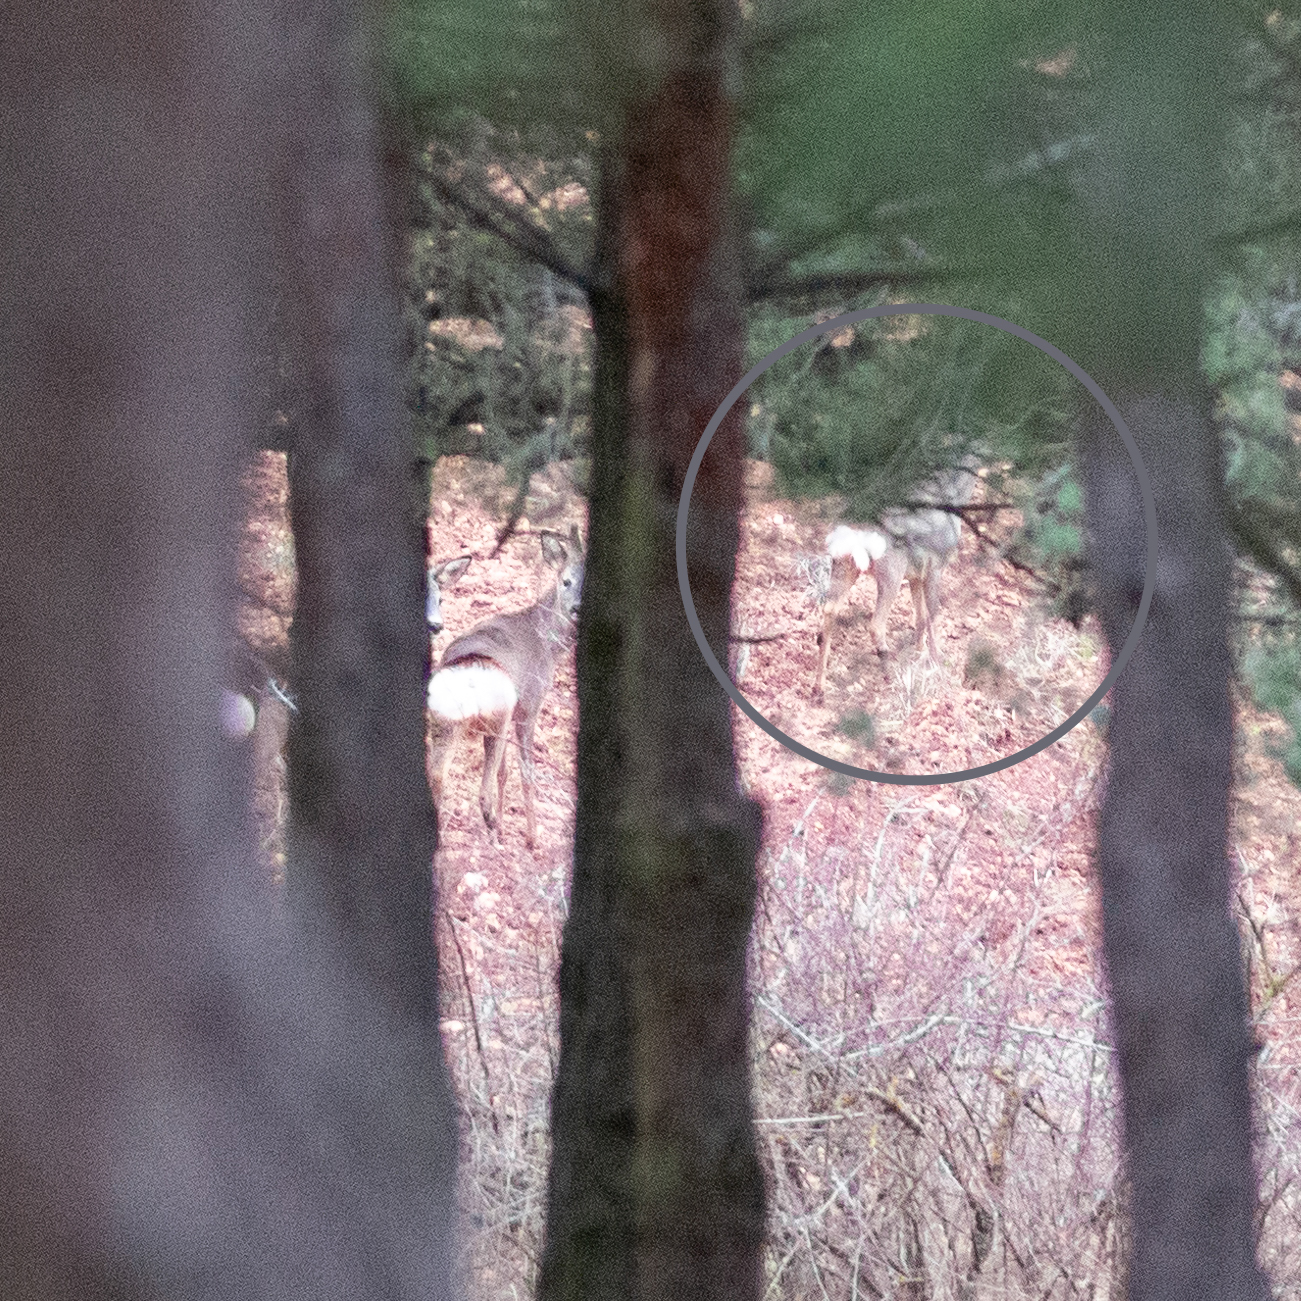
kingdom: Animalia
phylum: Chordata
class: Mammalia
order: Artiodactyla
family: Cervidae
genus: Capreolus
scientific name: Capreolus capreolus
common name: Western roe deer
